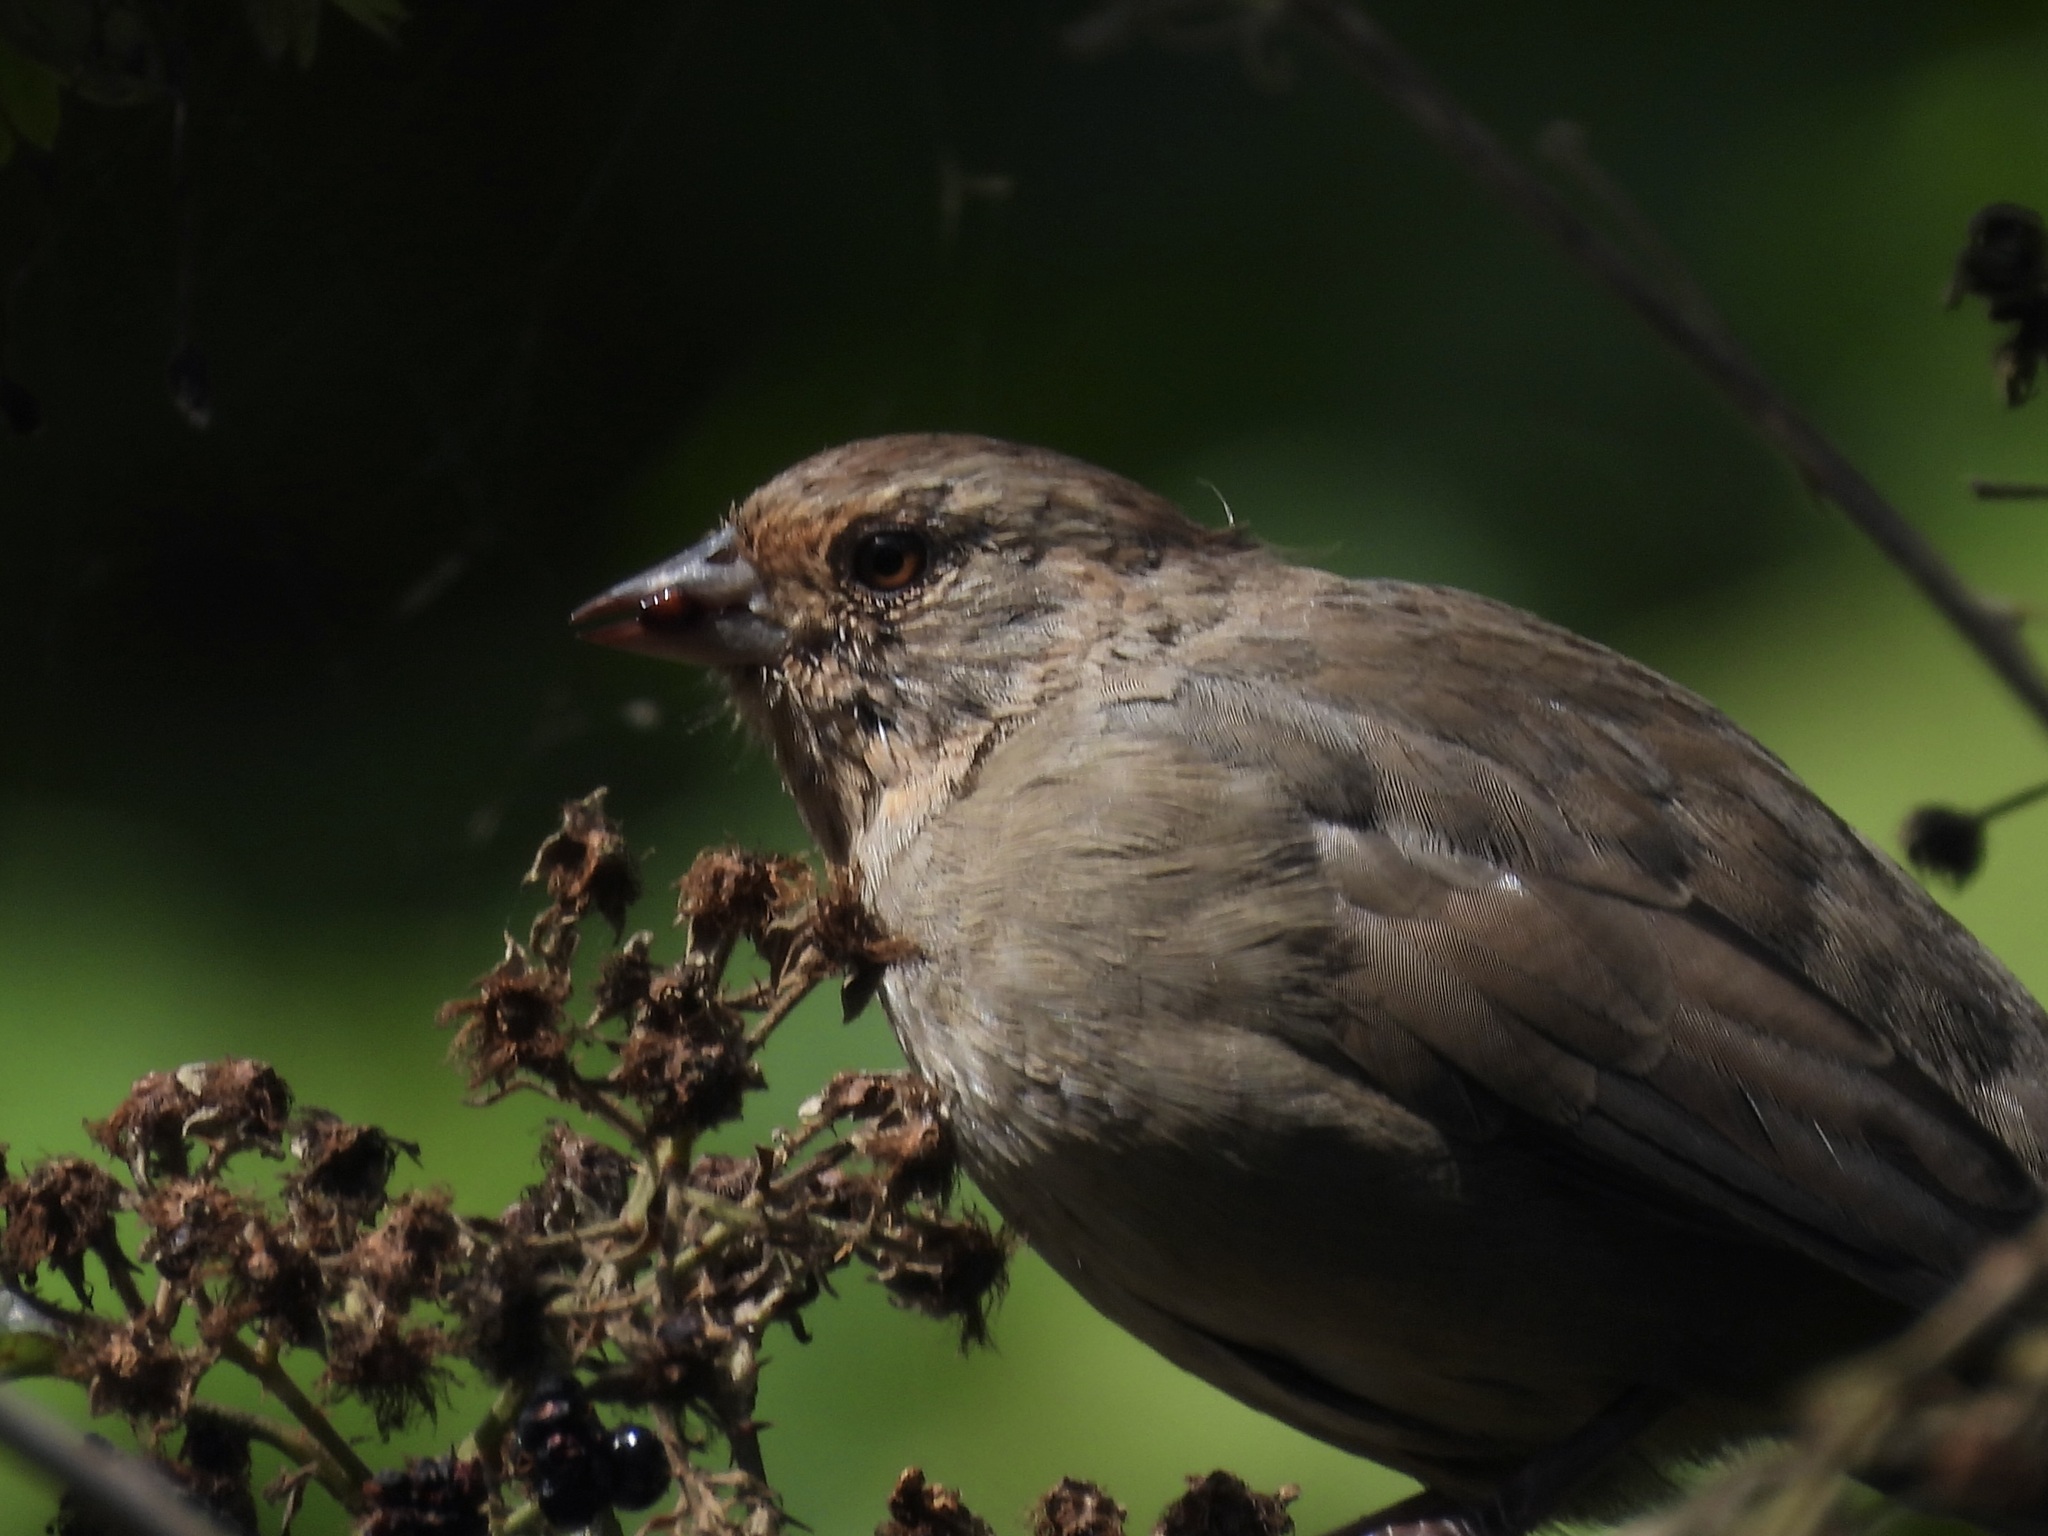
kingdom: Animalia
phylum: Chordata
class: Aves
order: Passeriformes
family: Passerellidae
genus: Melozone
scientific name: Melozone crissalis
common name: California towhee
